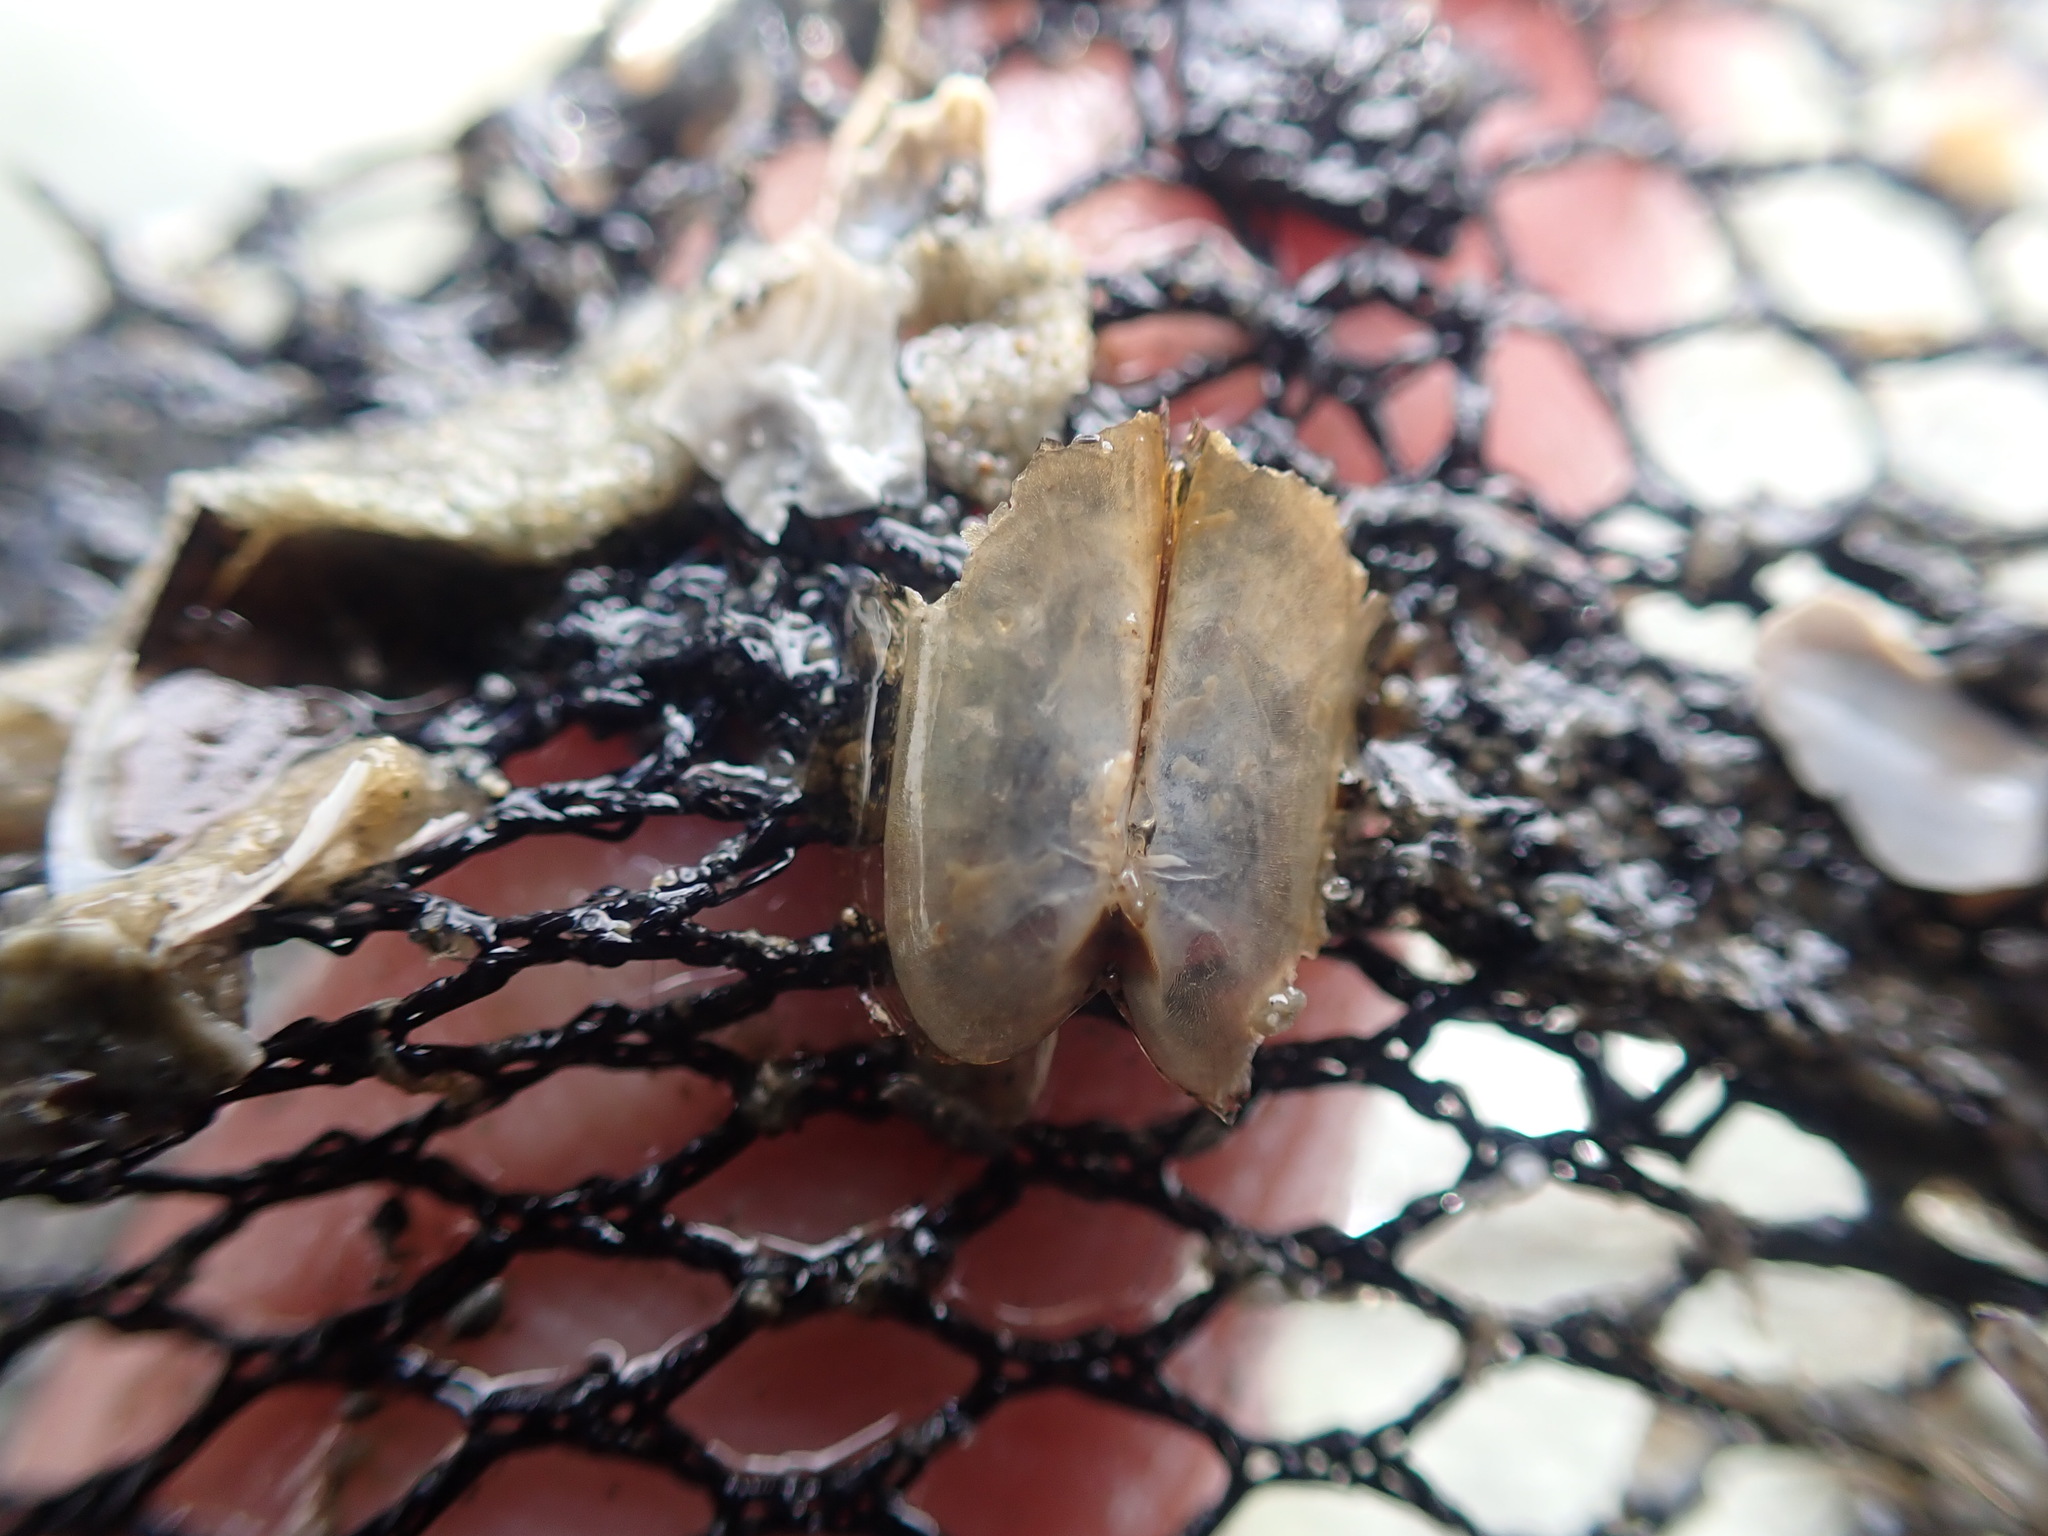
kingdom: Animalia
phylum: Mollusca
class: Bivalvia
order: Solemyida
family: Solemyidae
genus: Solemya
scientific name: Solemya parkinsonii
